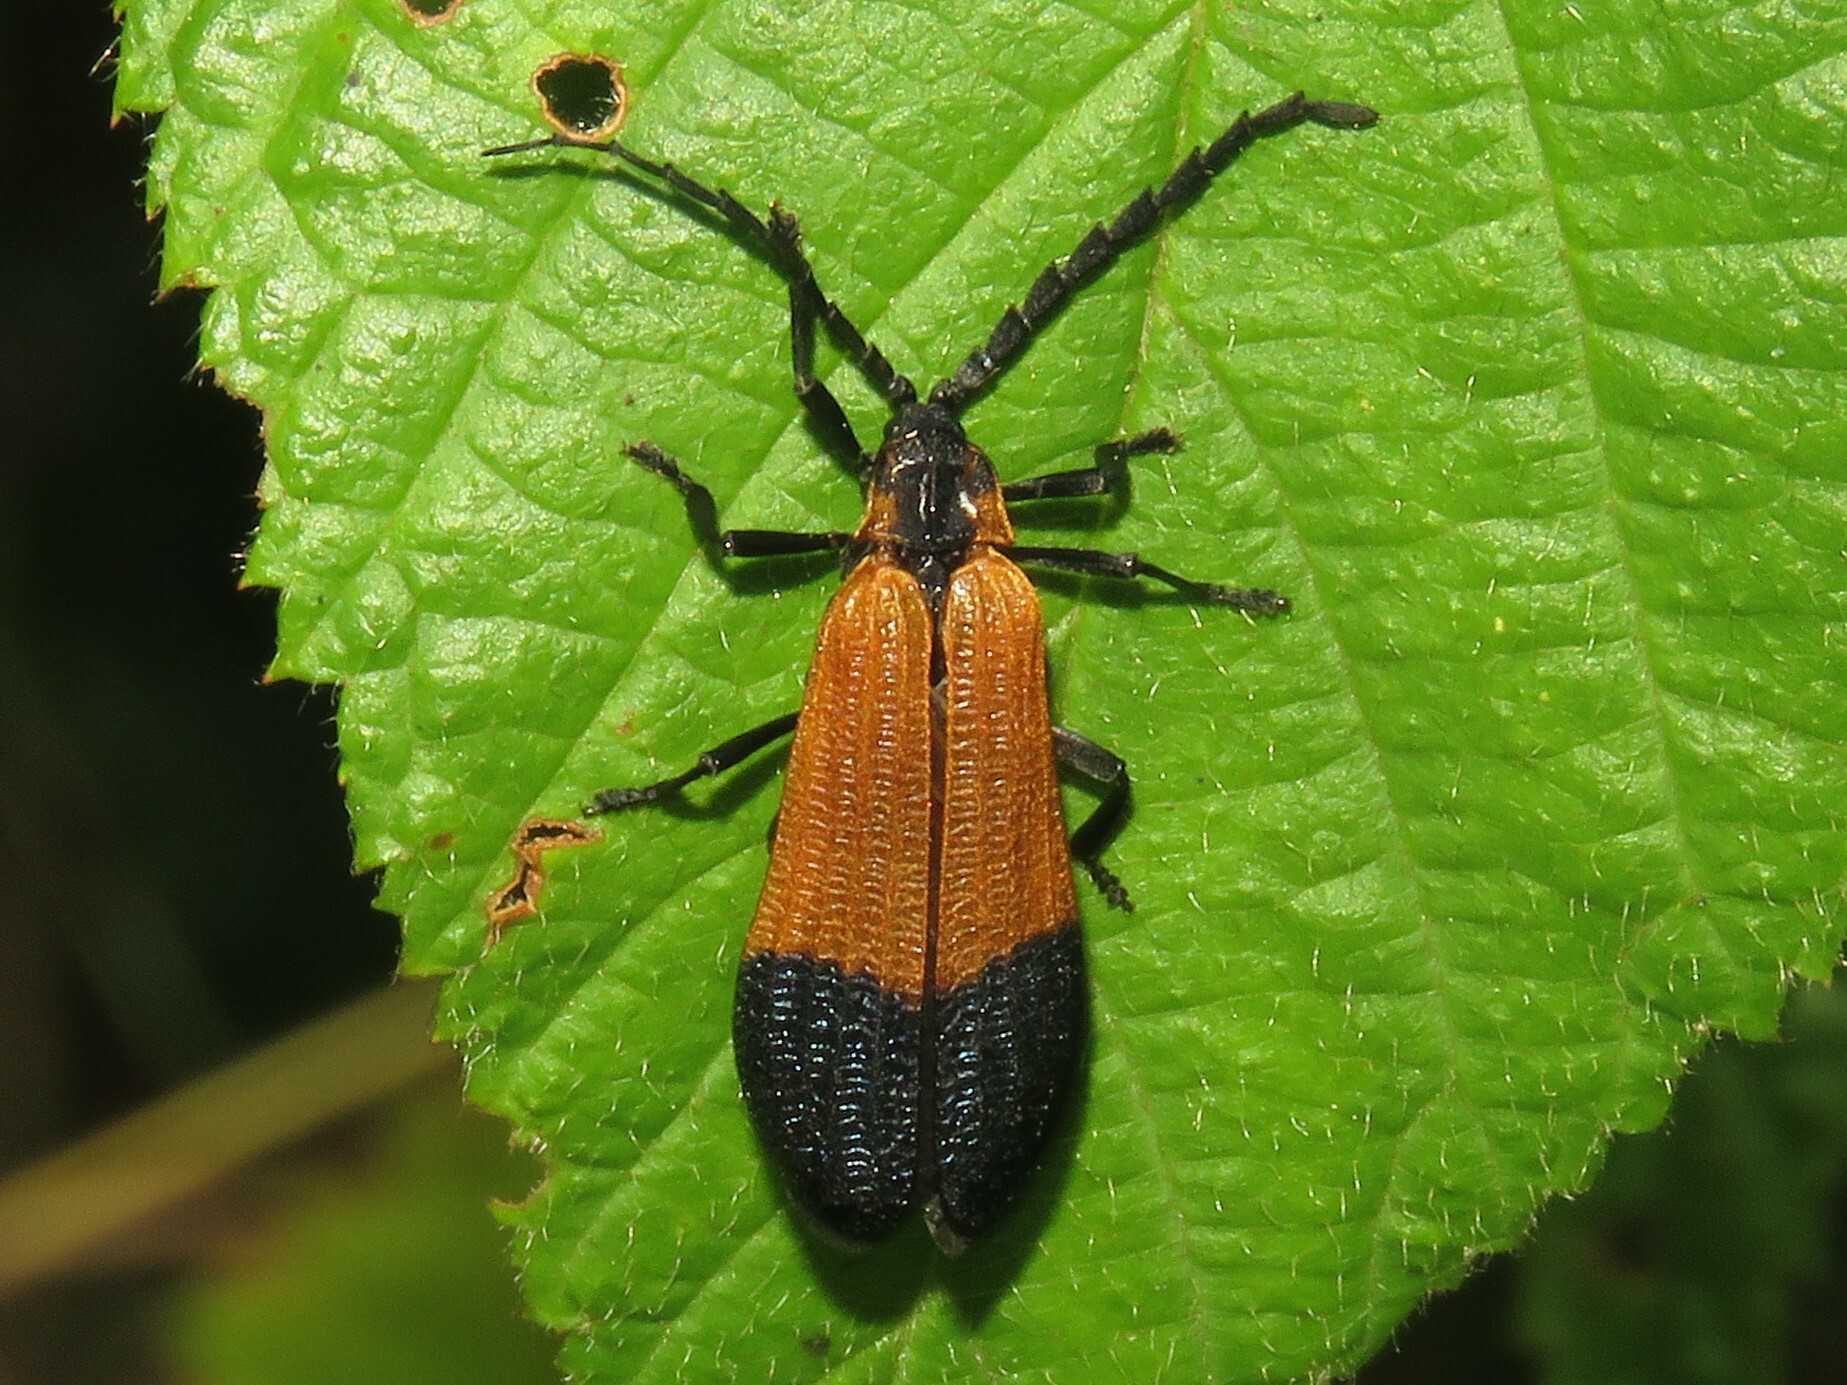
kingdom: Animalia
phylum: Arthropoda
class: Insecta
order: Coleoptera
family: Lycidae
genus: Calopteron
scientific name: Calopteron terminale
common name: End band net-winged beetle
